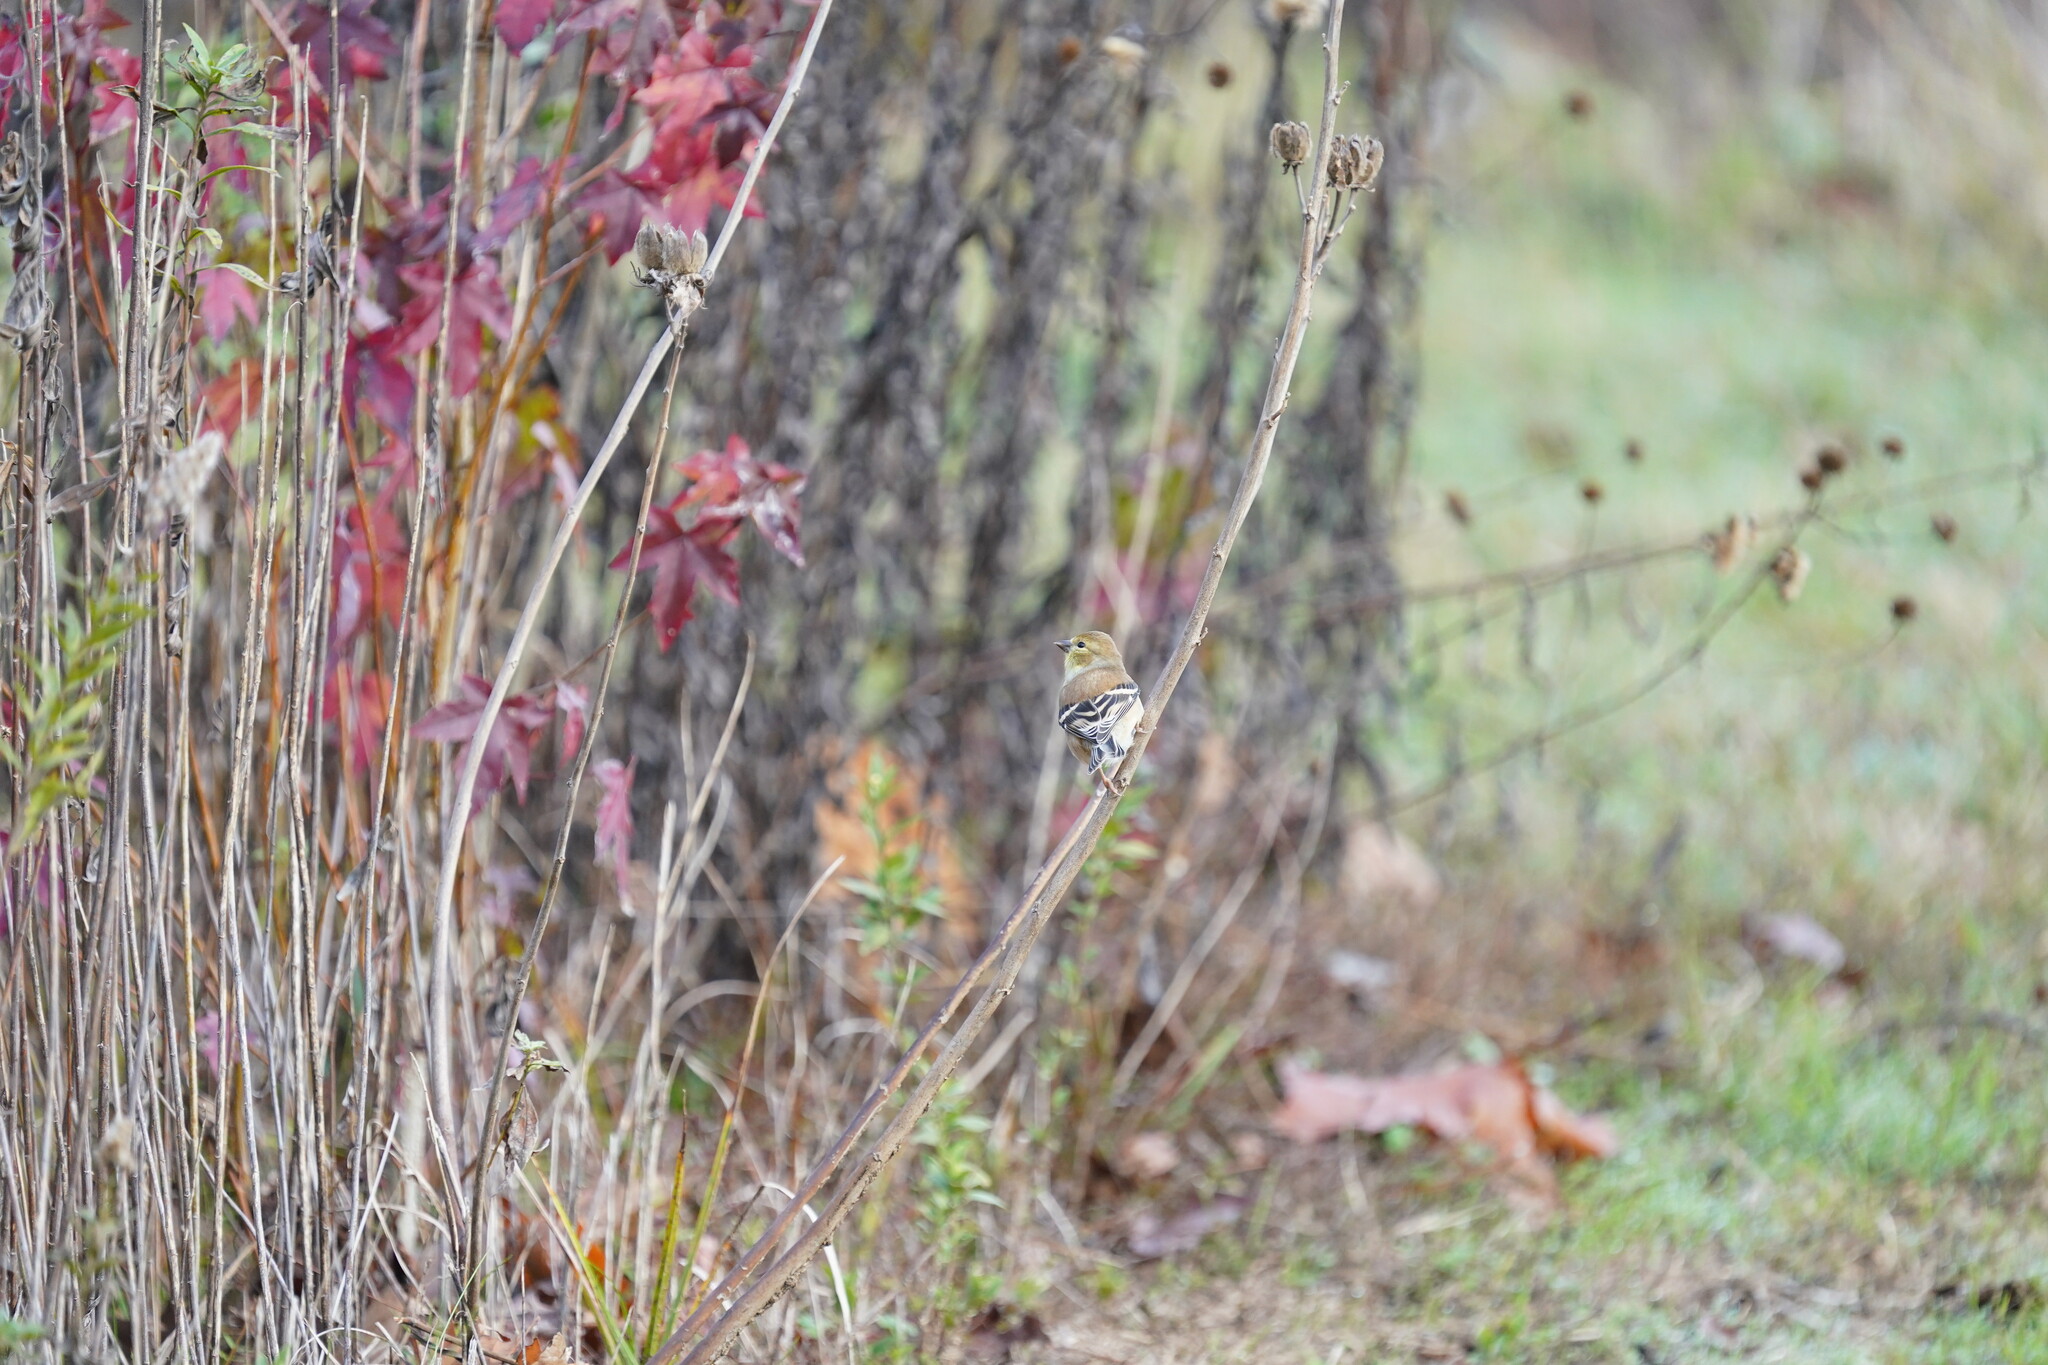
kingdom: Animalia
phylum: Chordata
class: Aves
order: Passeriformes
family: Fringillidae
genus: Spinus
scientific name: Spinus tristis
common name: American goldfinch
